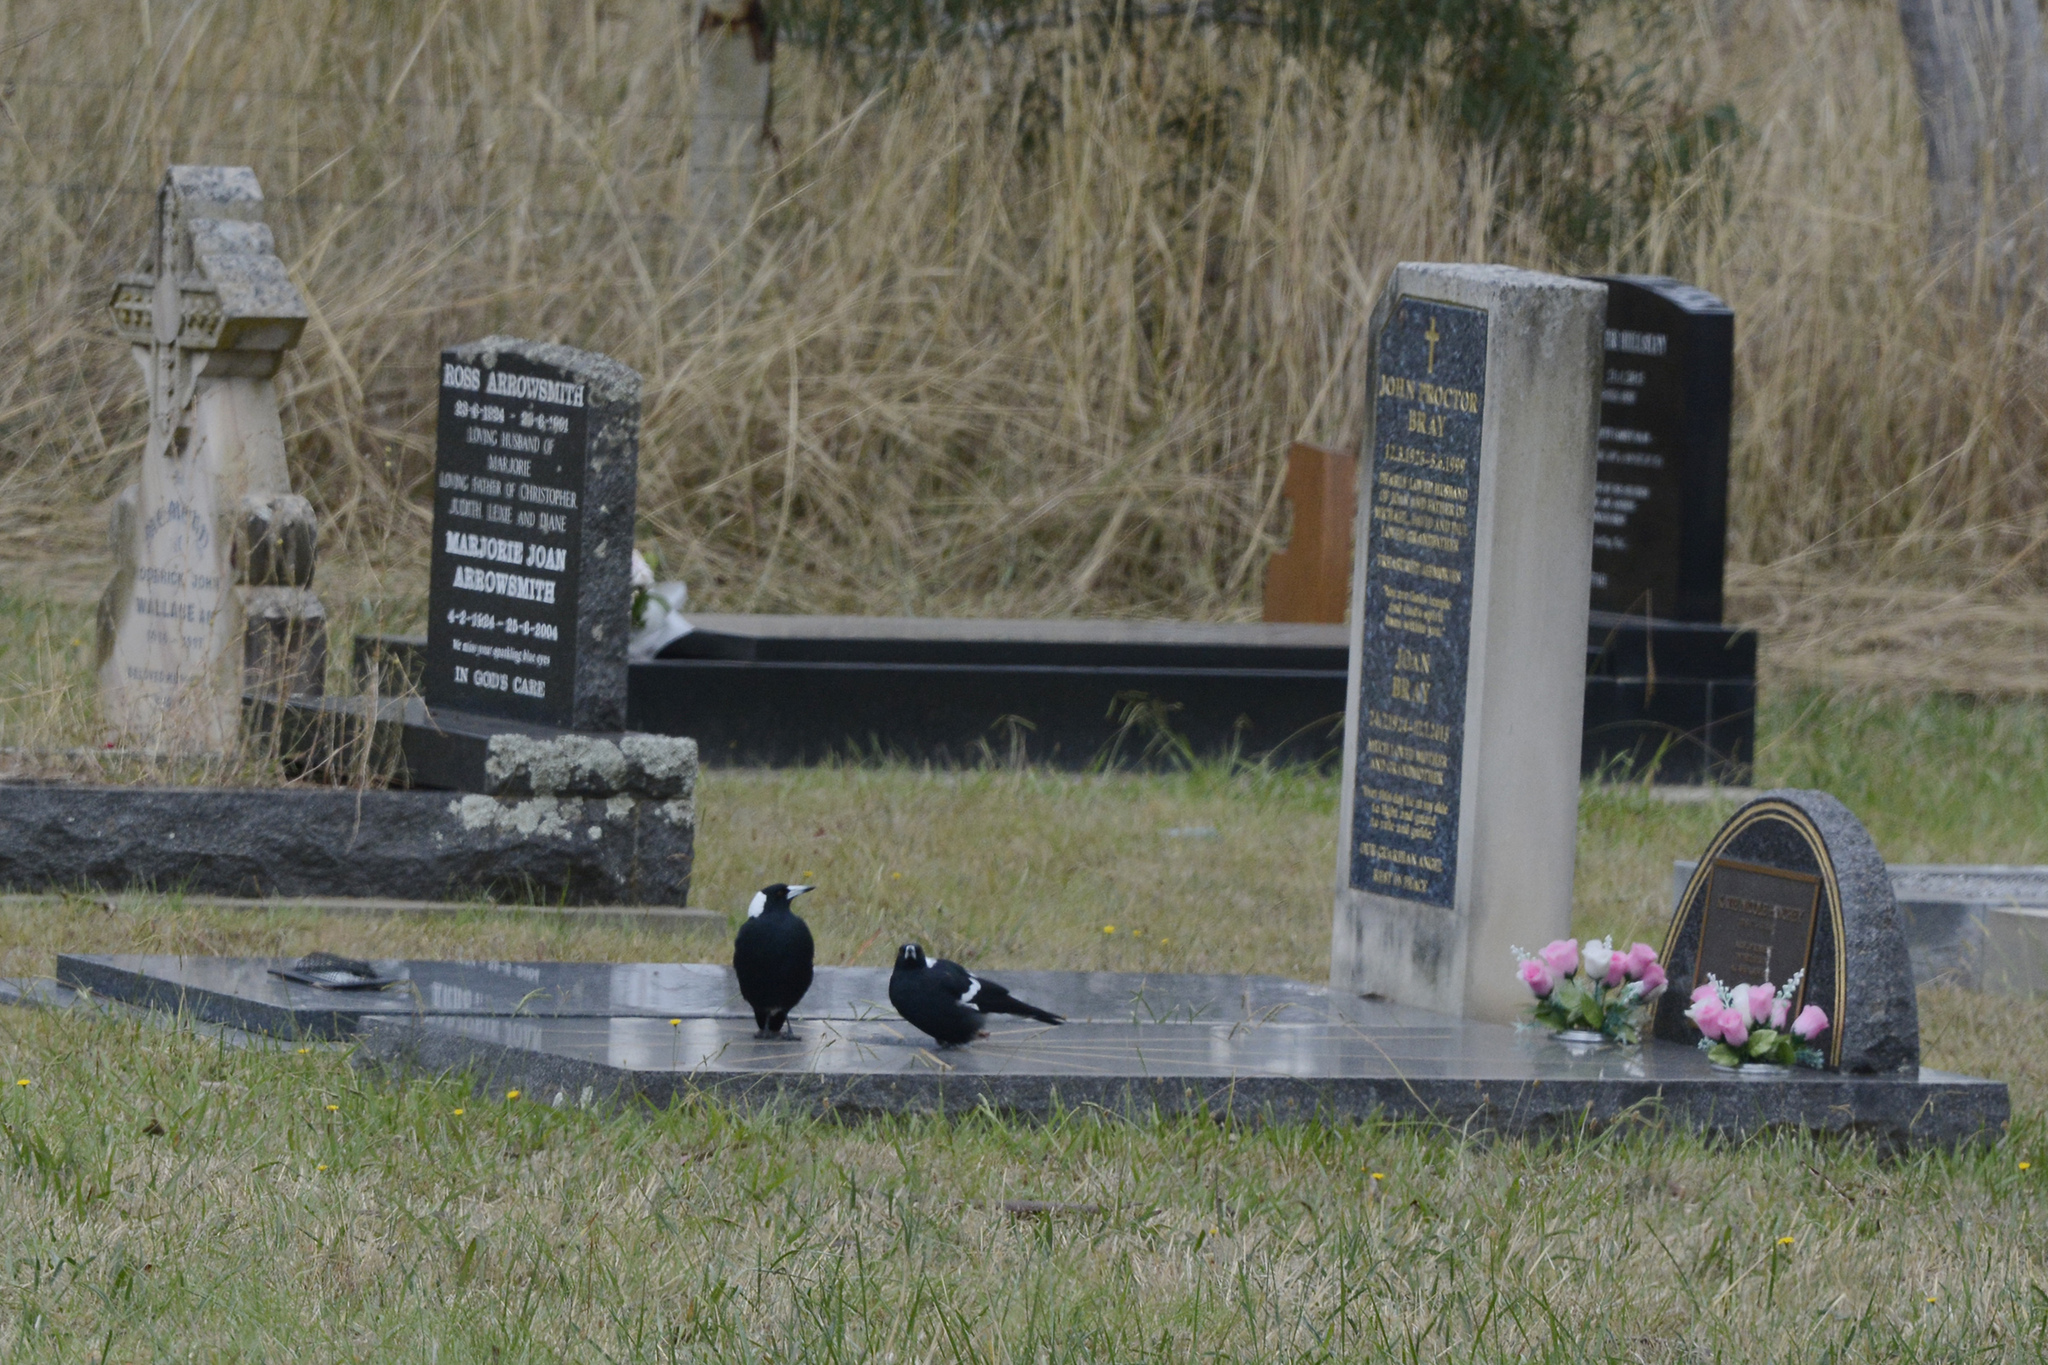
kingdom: Animalia
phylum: Chordata
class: Aves
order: Passeriformes
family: Cracticidae
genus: Gymnorhina
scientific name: Gymnorhina tibicen
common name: Australian magpie
